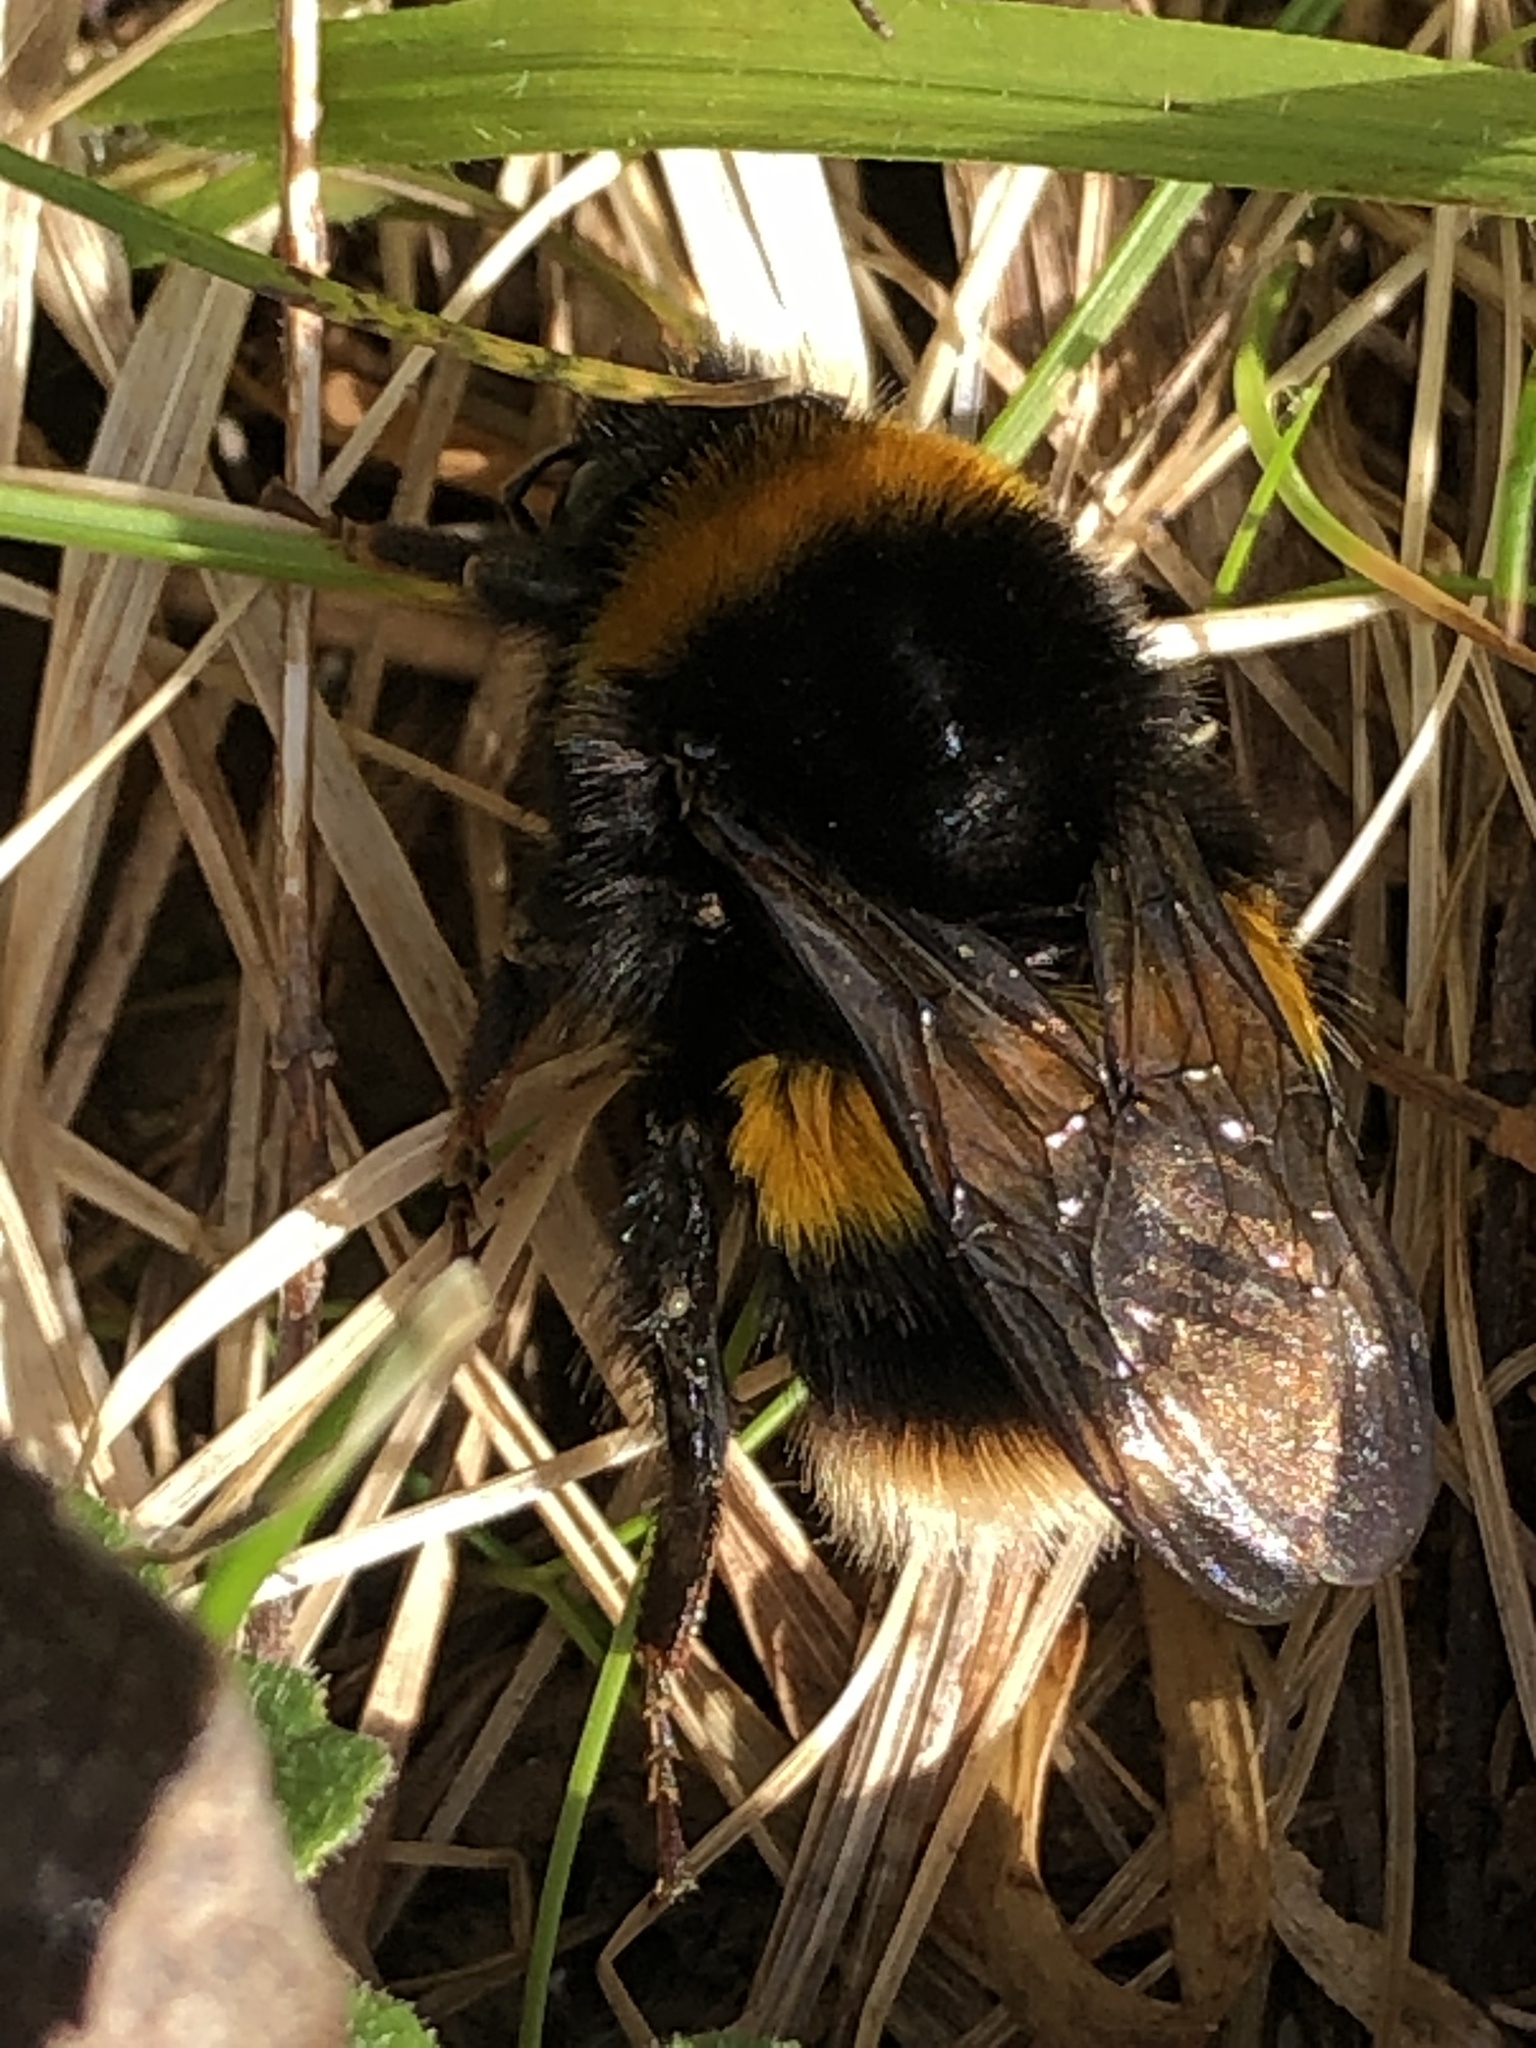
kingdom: Animalia
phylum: Arthropoda
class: Insecta
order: Hymenoptera
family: Apidae
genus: Bombus
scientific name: Bombus terrestris
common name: Buff-tailed bumblebee
